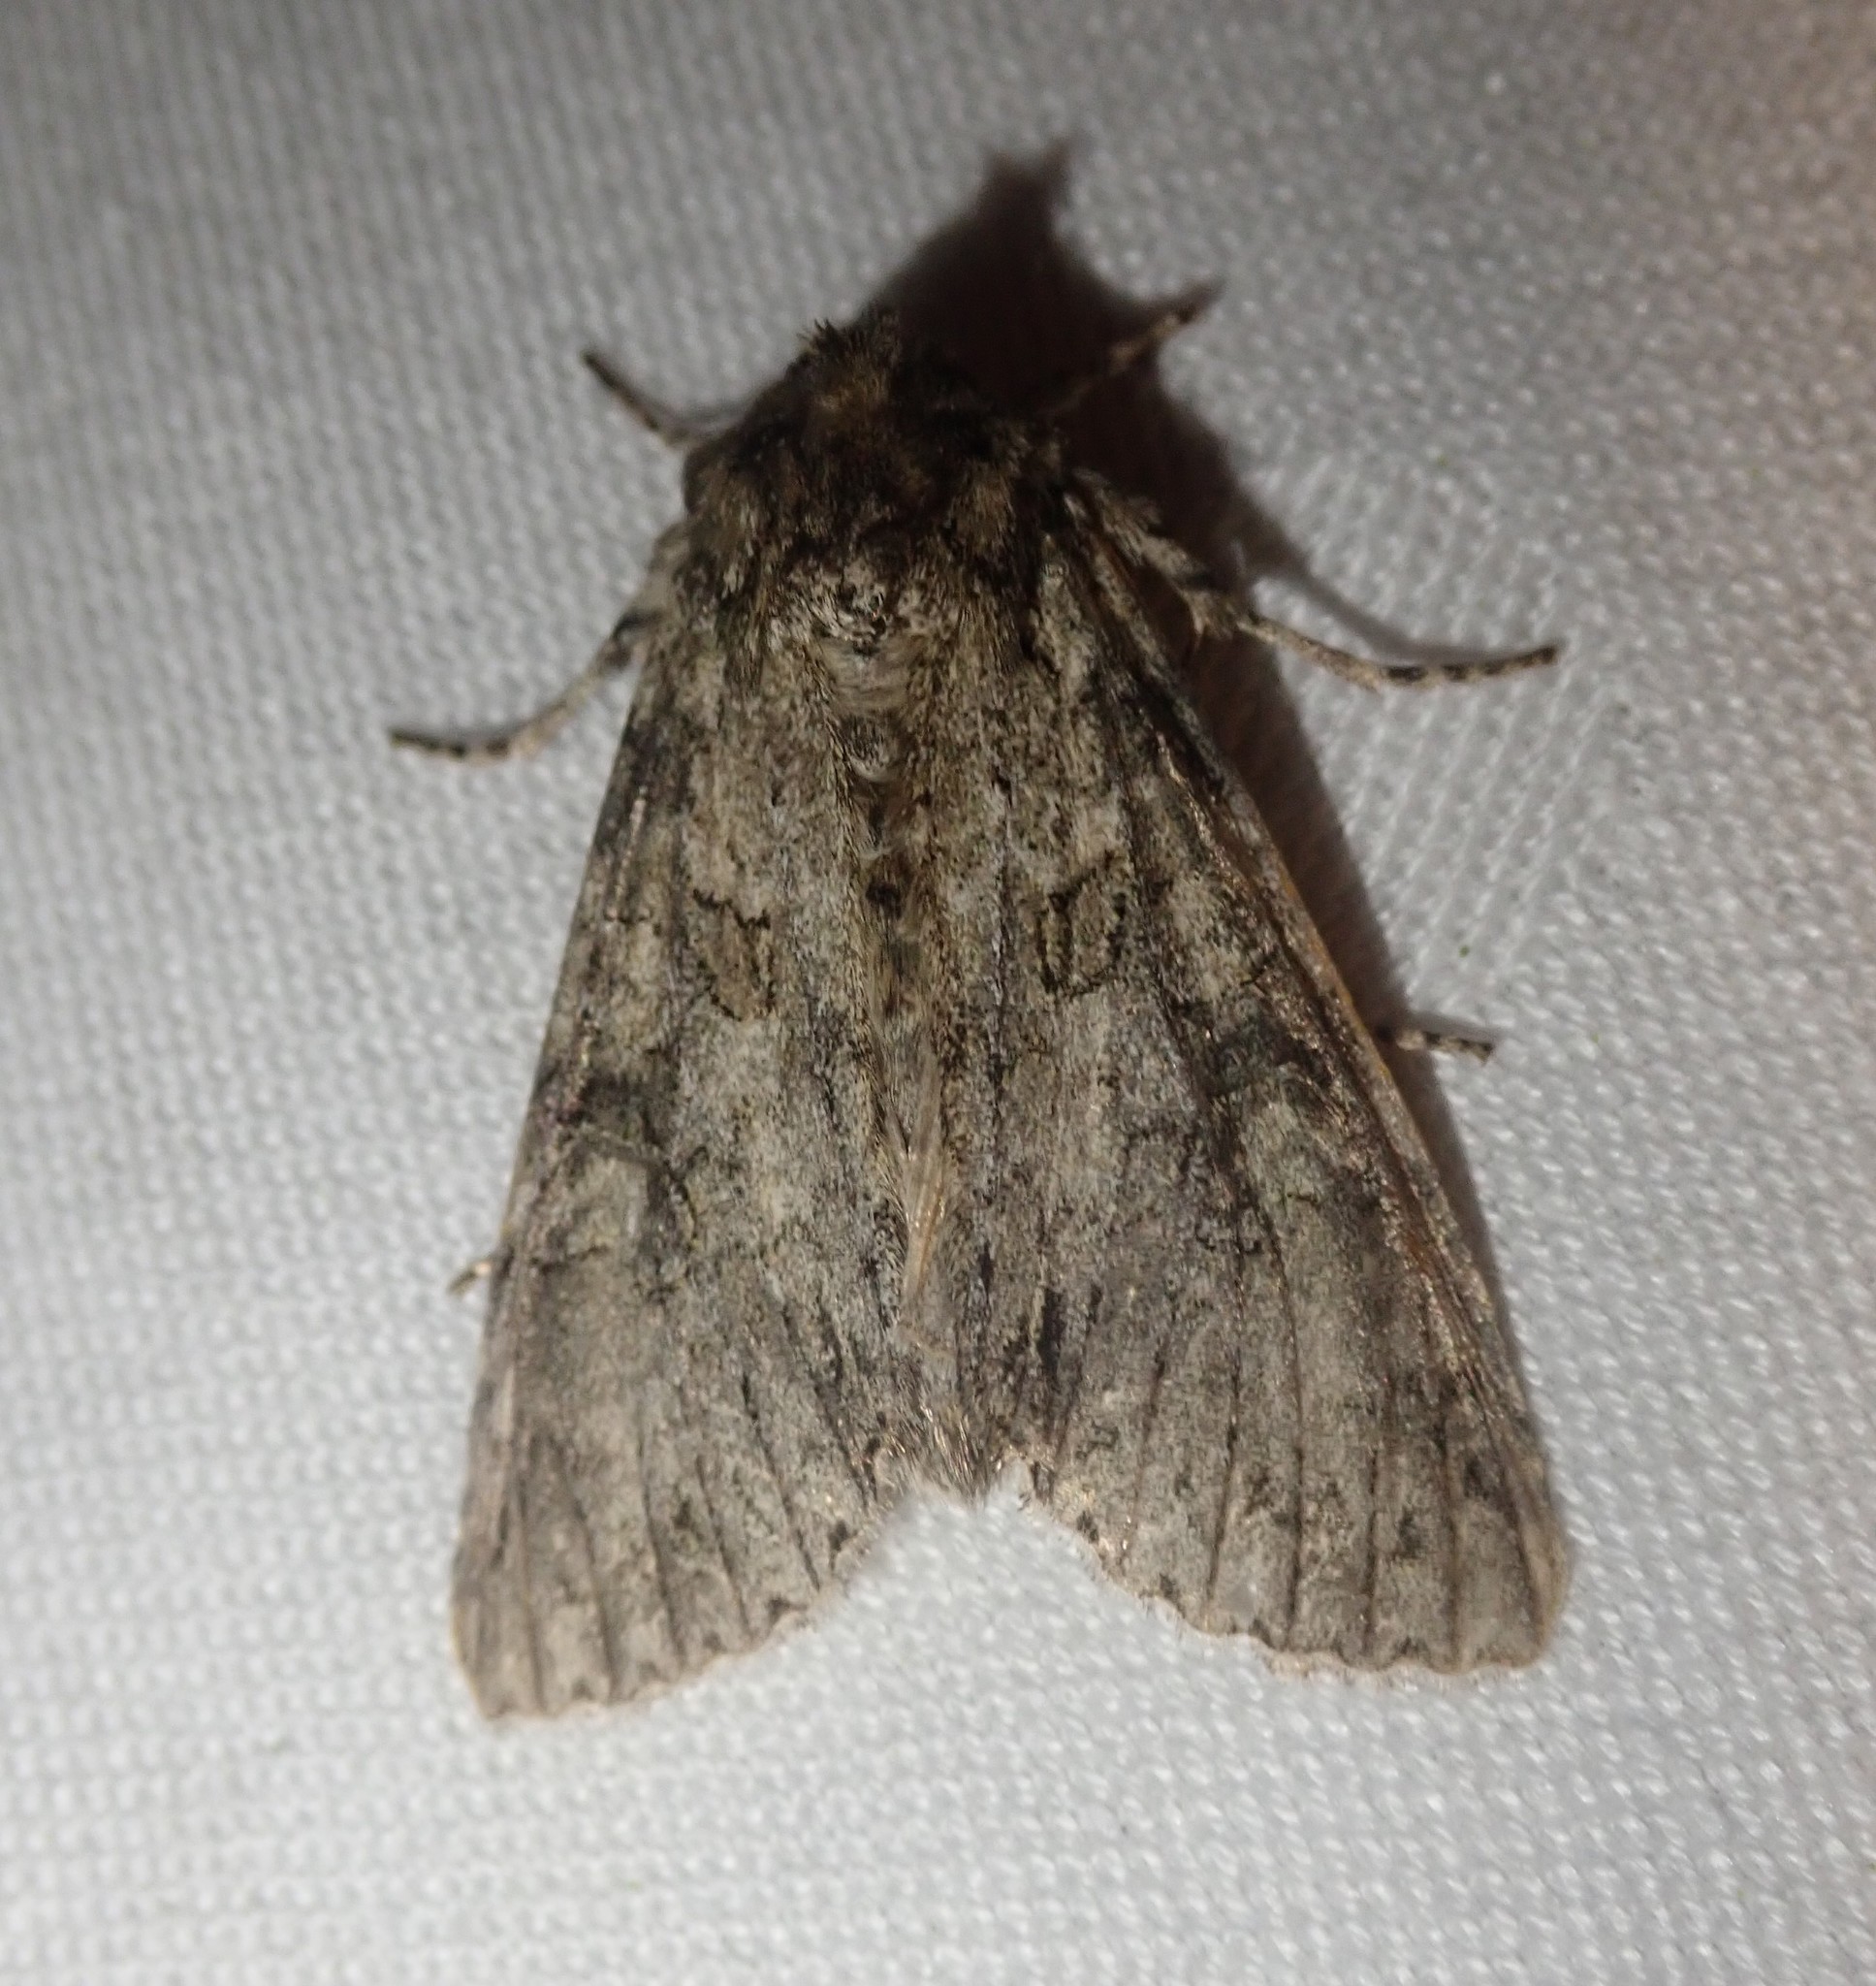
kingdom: Animalia
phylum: Arthropoda
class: Insecta
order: Lepidoptera
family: Noctuidae
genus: Polia
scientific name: Polia nebulosa
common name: Grey arches
